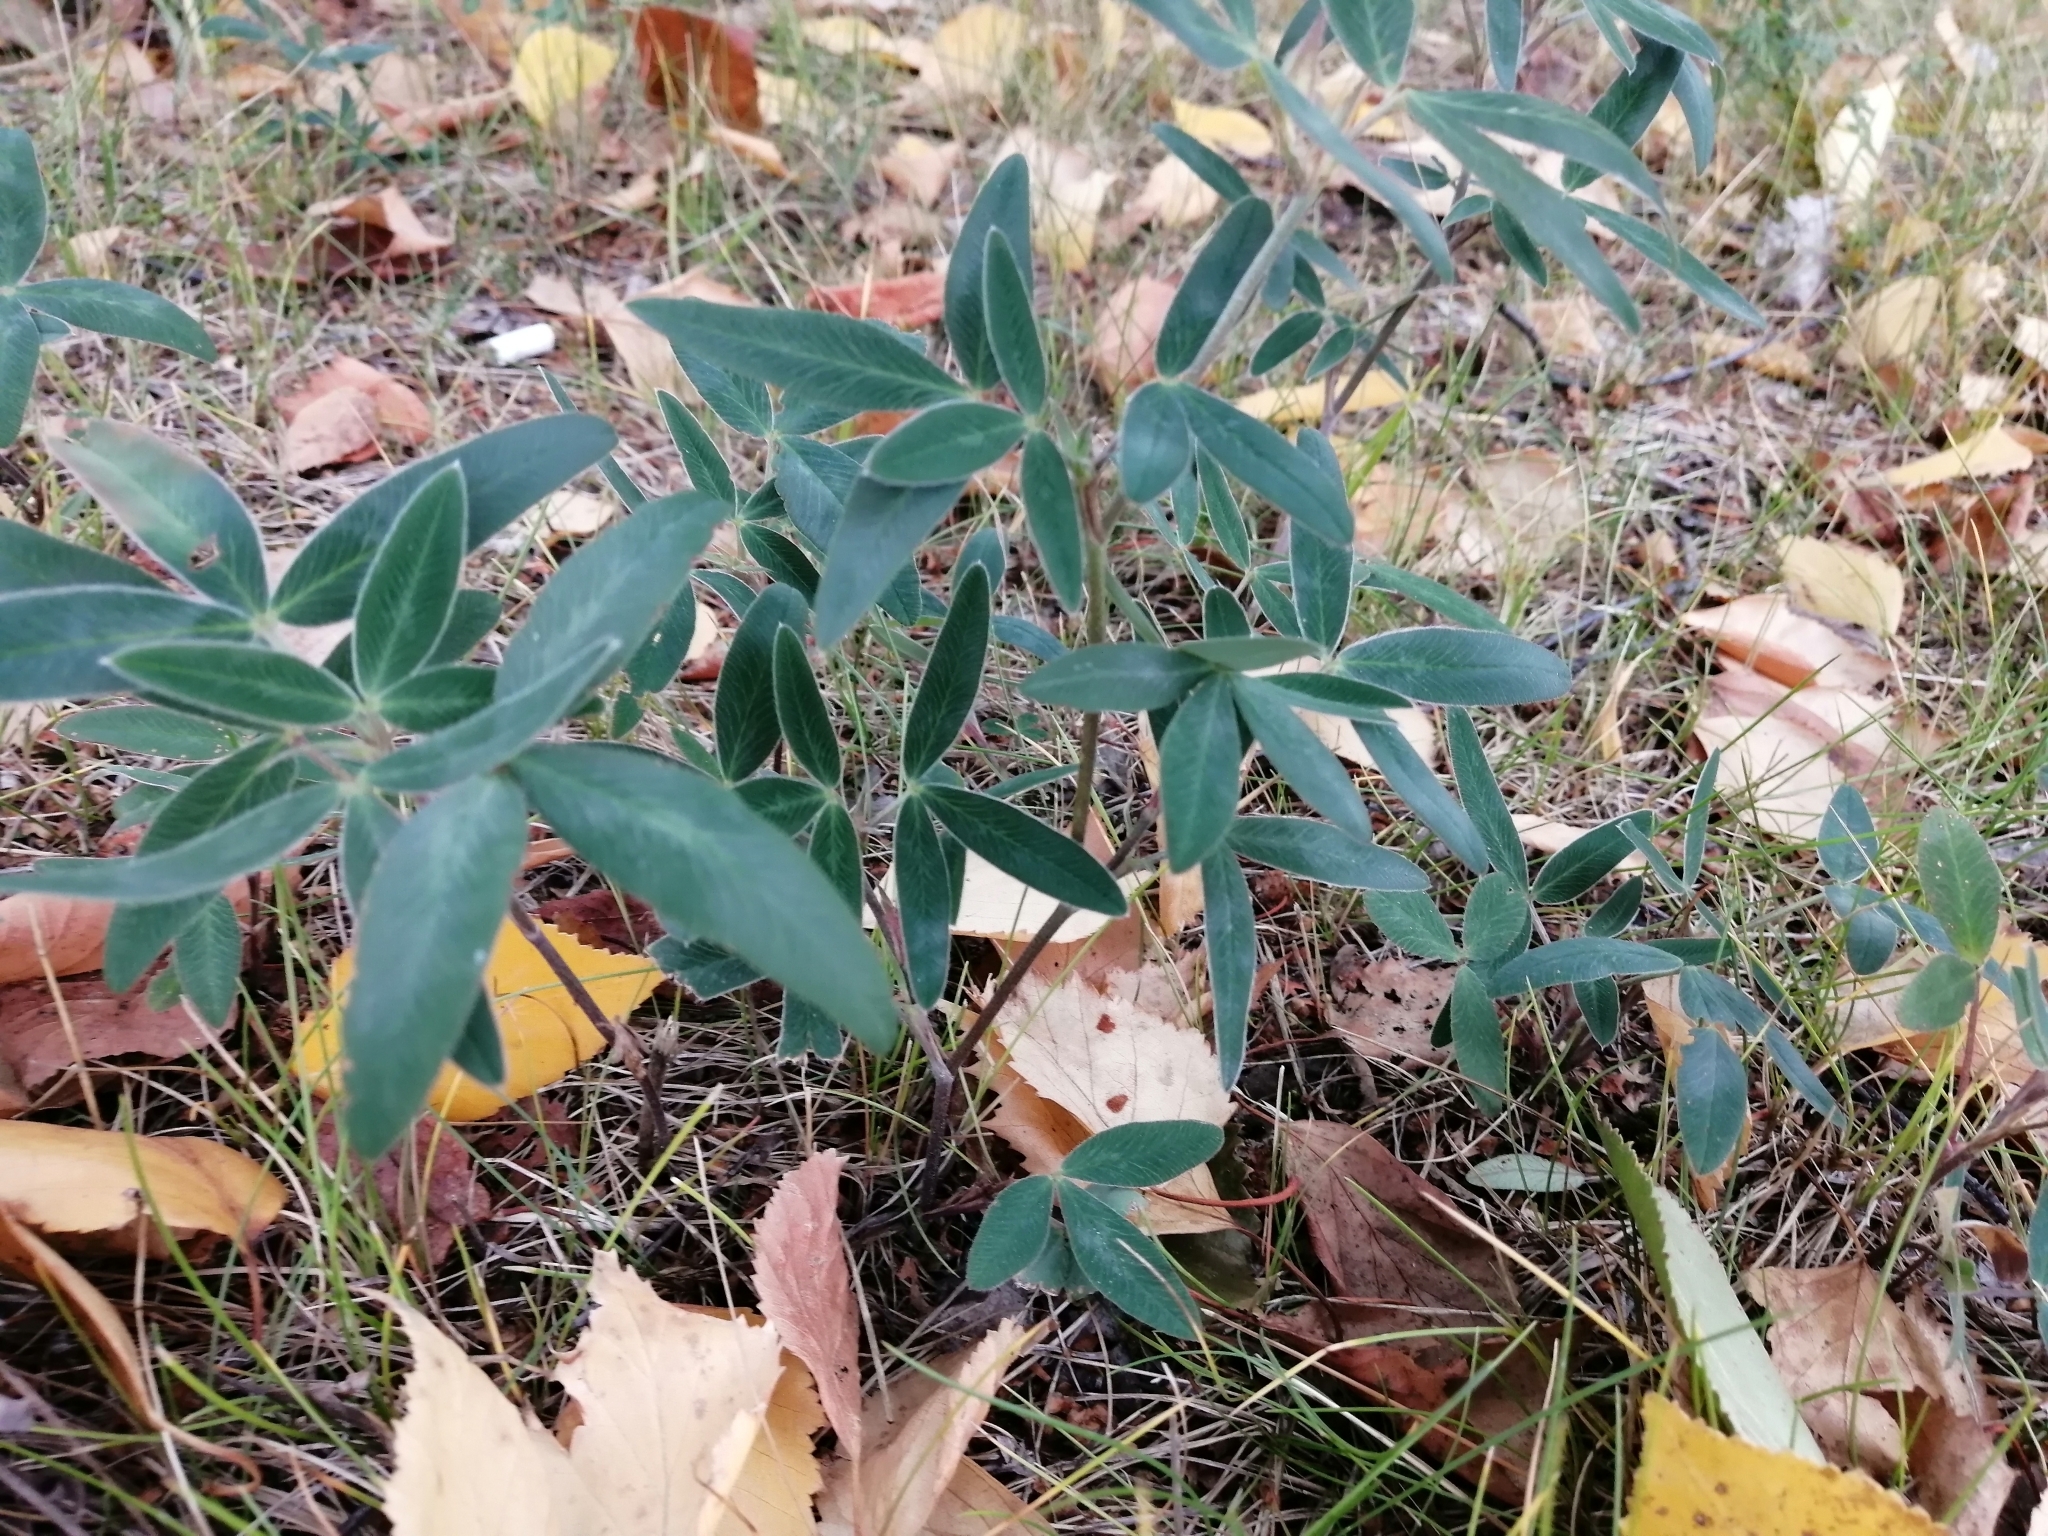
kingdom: Plantae
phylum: Tracheophyta
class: Magnoliopsida
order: Fabales
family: Fabaceae
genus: Trifolium
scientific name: Trifolium medium
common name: Zigzag clover
